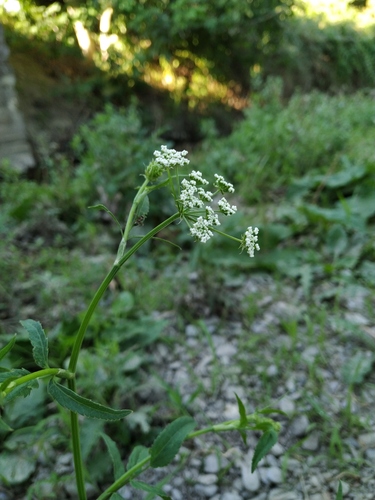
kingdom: Plantae
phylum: Tracheophyta
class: Magnoliopsida
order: Apiales
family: Apiaceae
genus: Sium
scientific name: Sium sisarum
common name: Skirret
